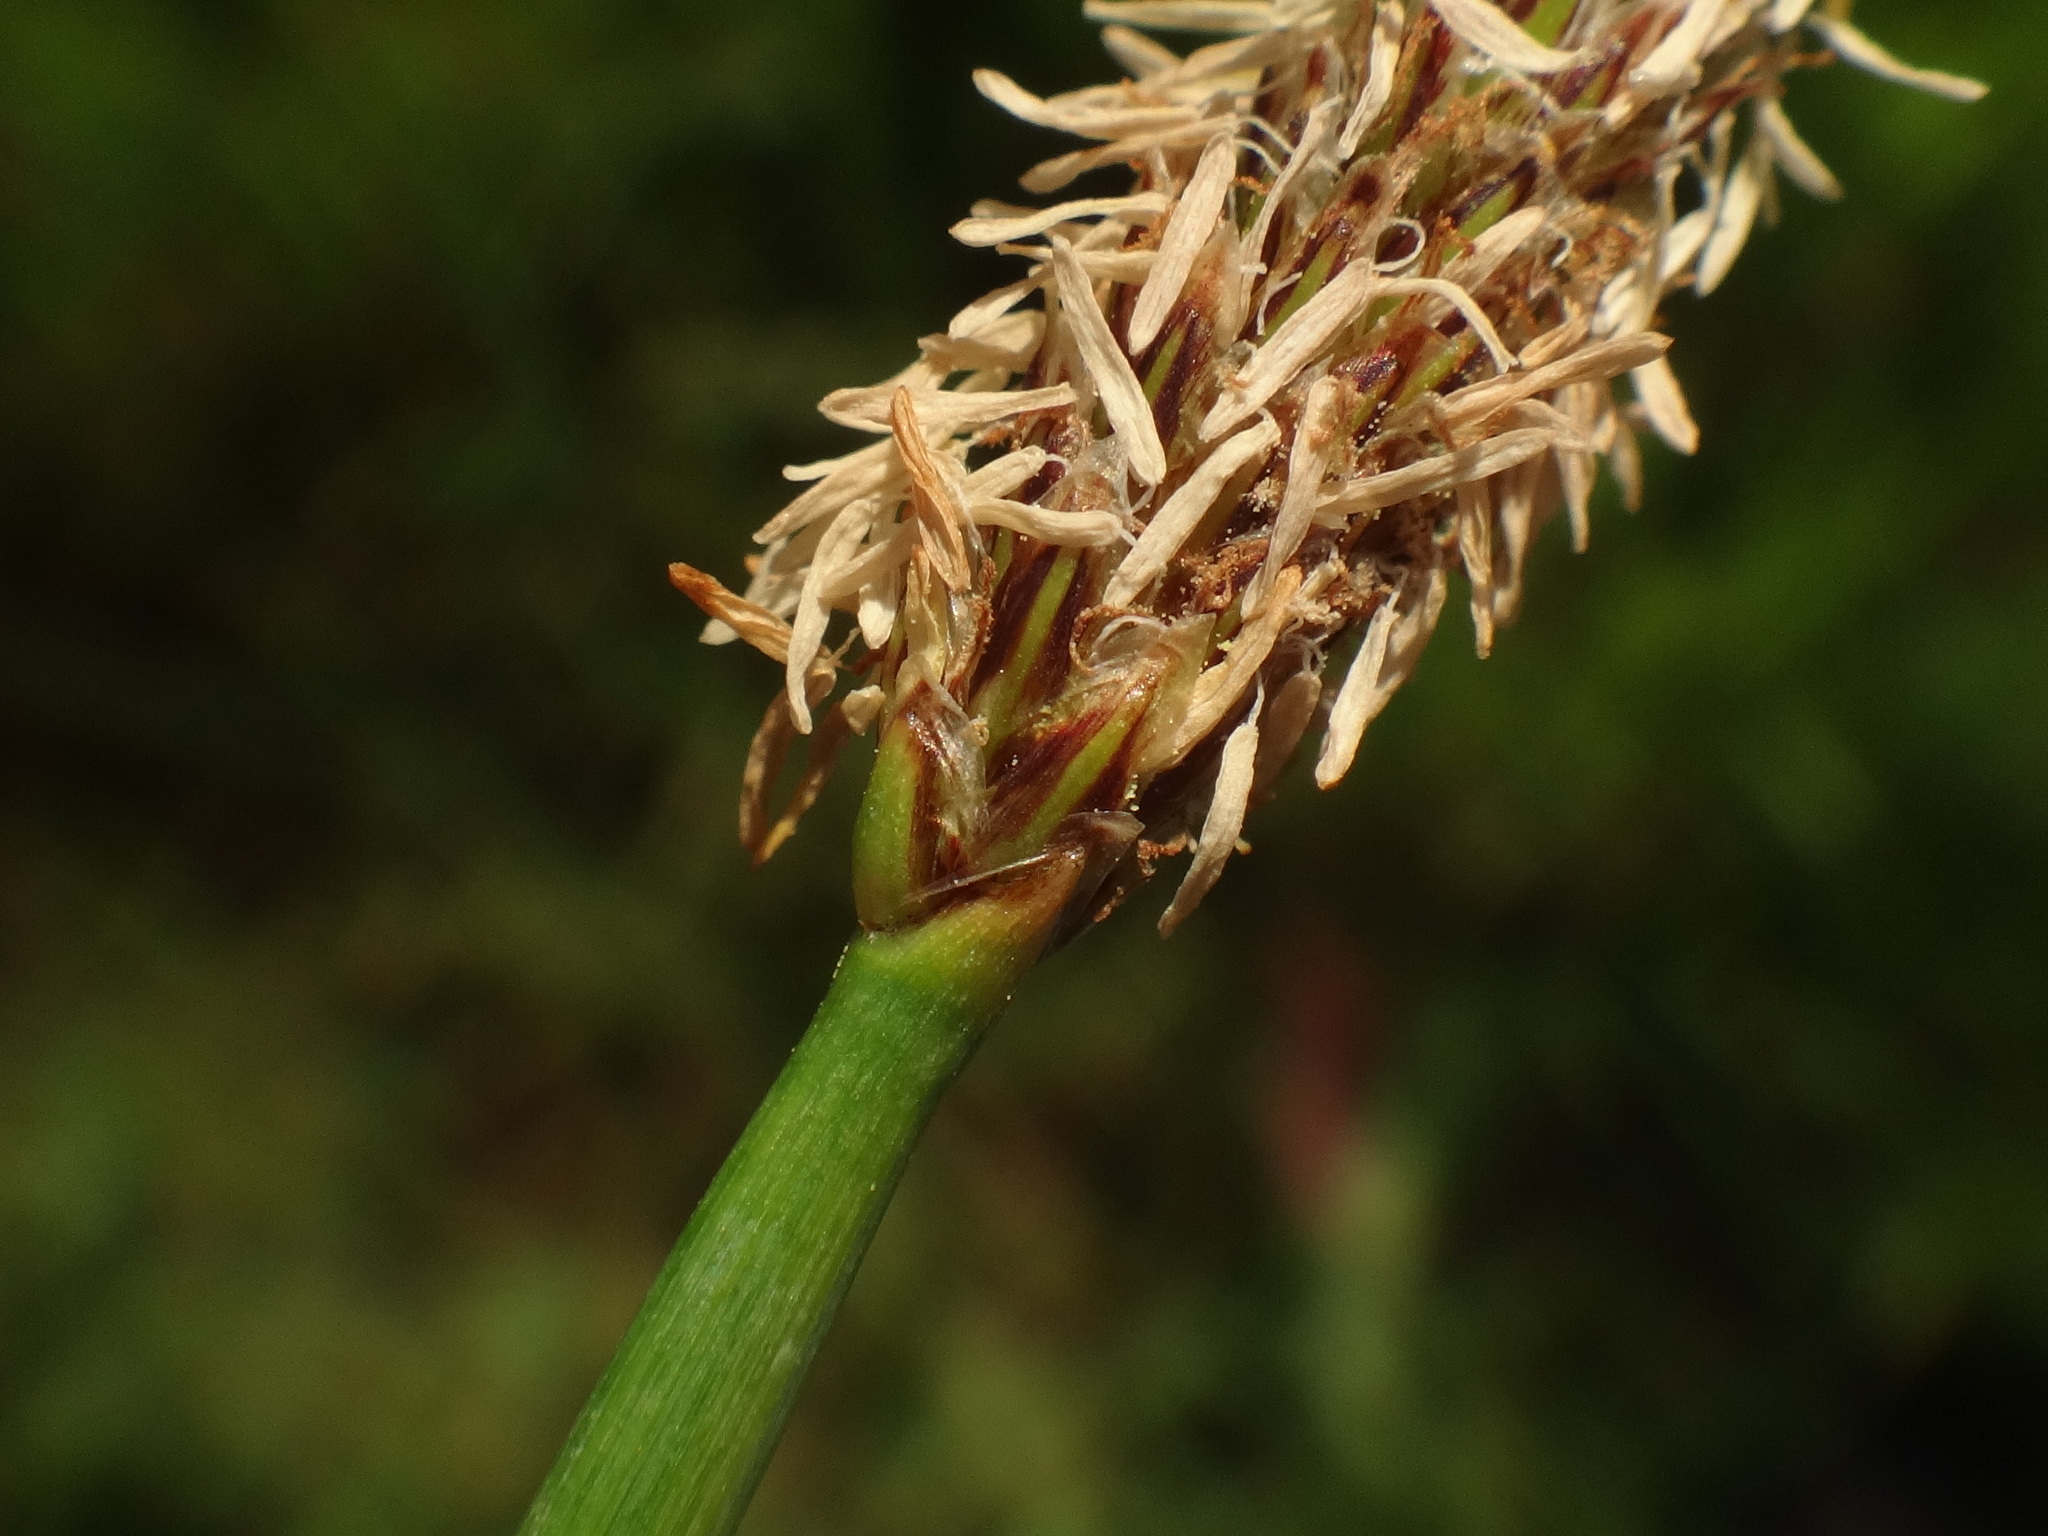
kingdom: Plantae
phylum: Tracheophyta
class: Liliopsida
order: Poales
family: Cyperaceae
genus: Eleocharis
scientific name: Eleocharis palustris
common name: Common spike-rush
